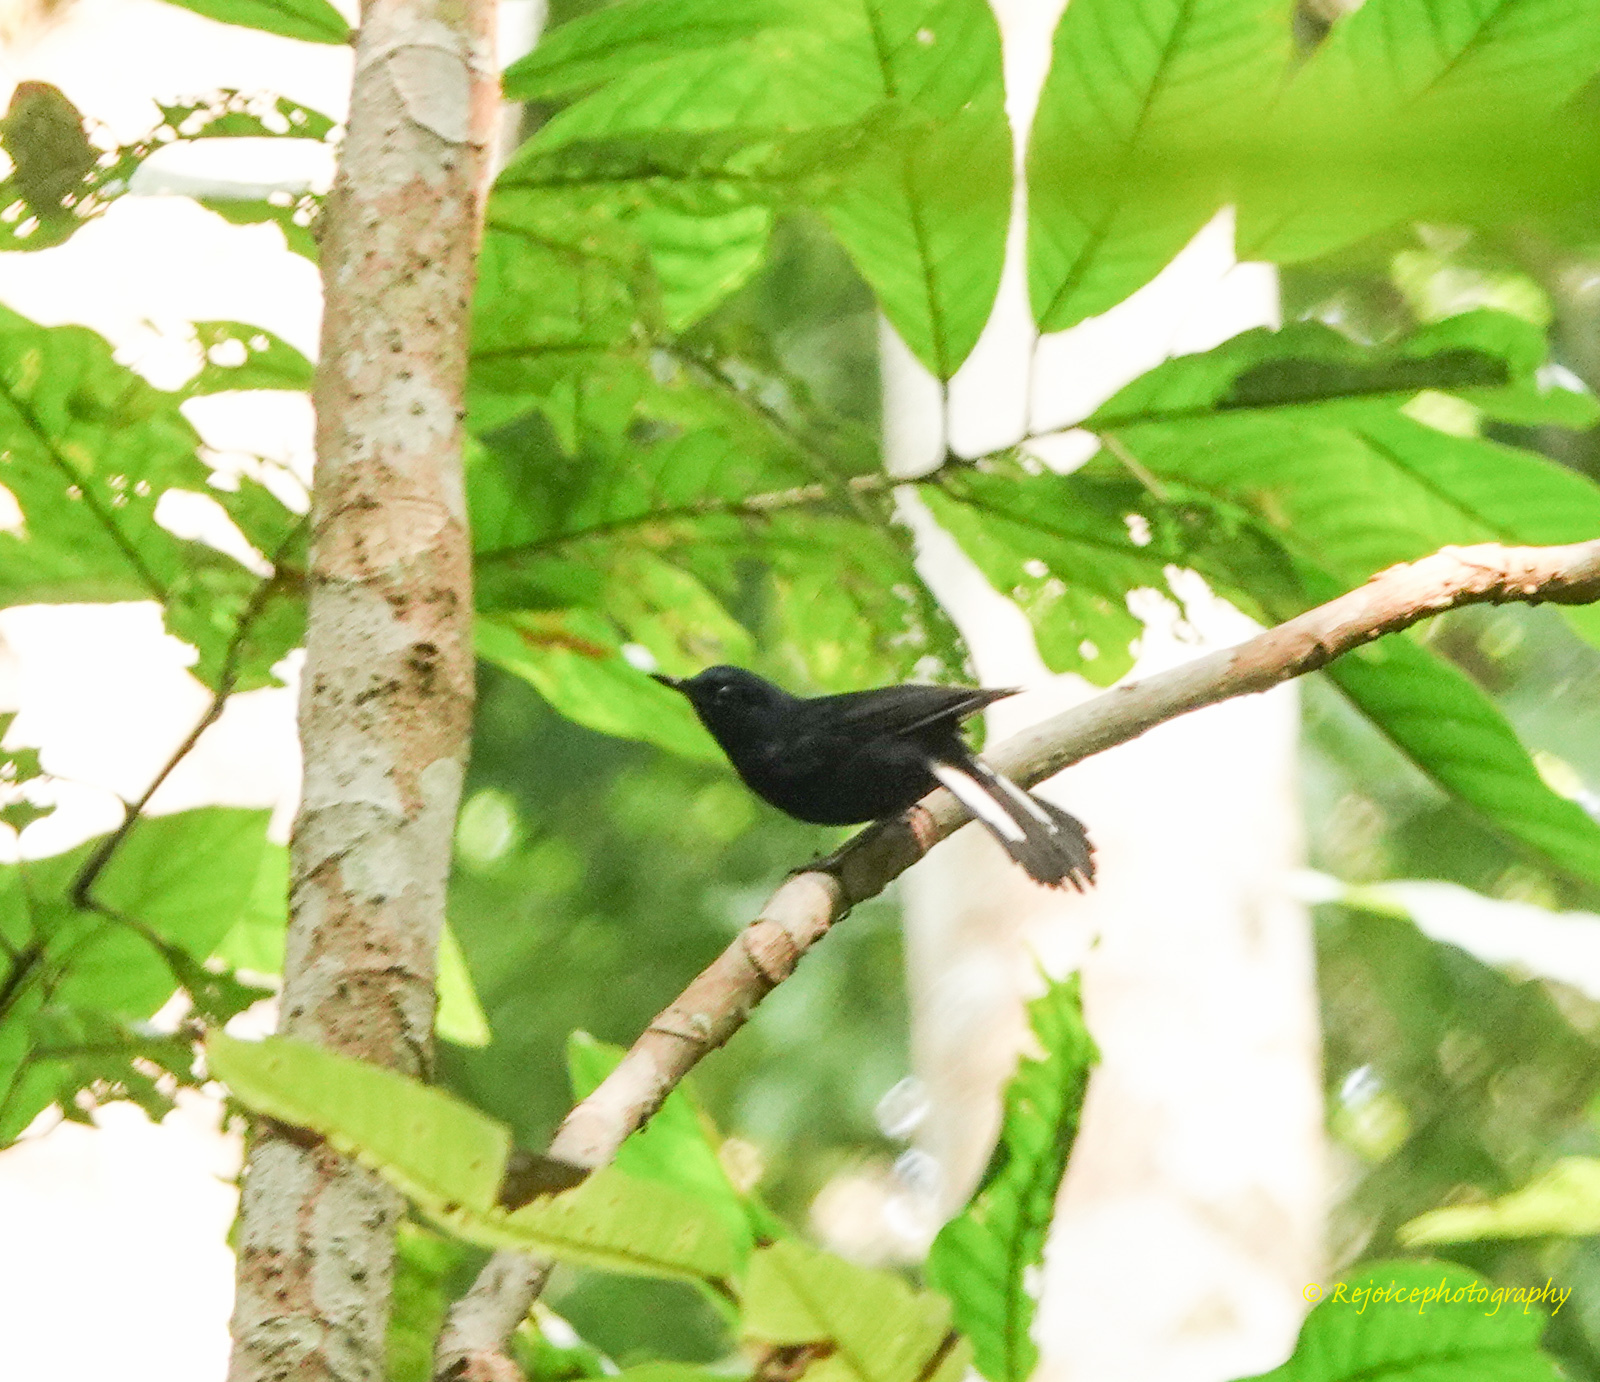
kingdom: Animalia
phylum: Chordata
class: Aves
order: Passeriformes
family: Muscicapidae
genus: Myiomela
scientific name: Myiomela leucura
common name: White-tailed robin
